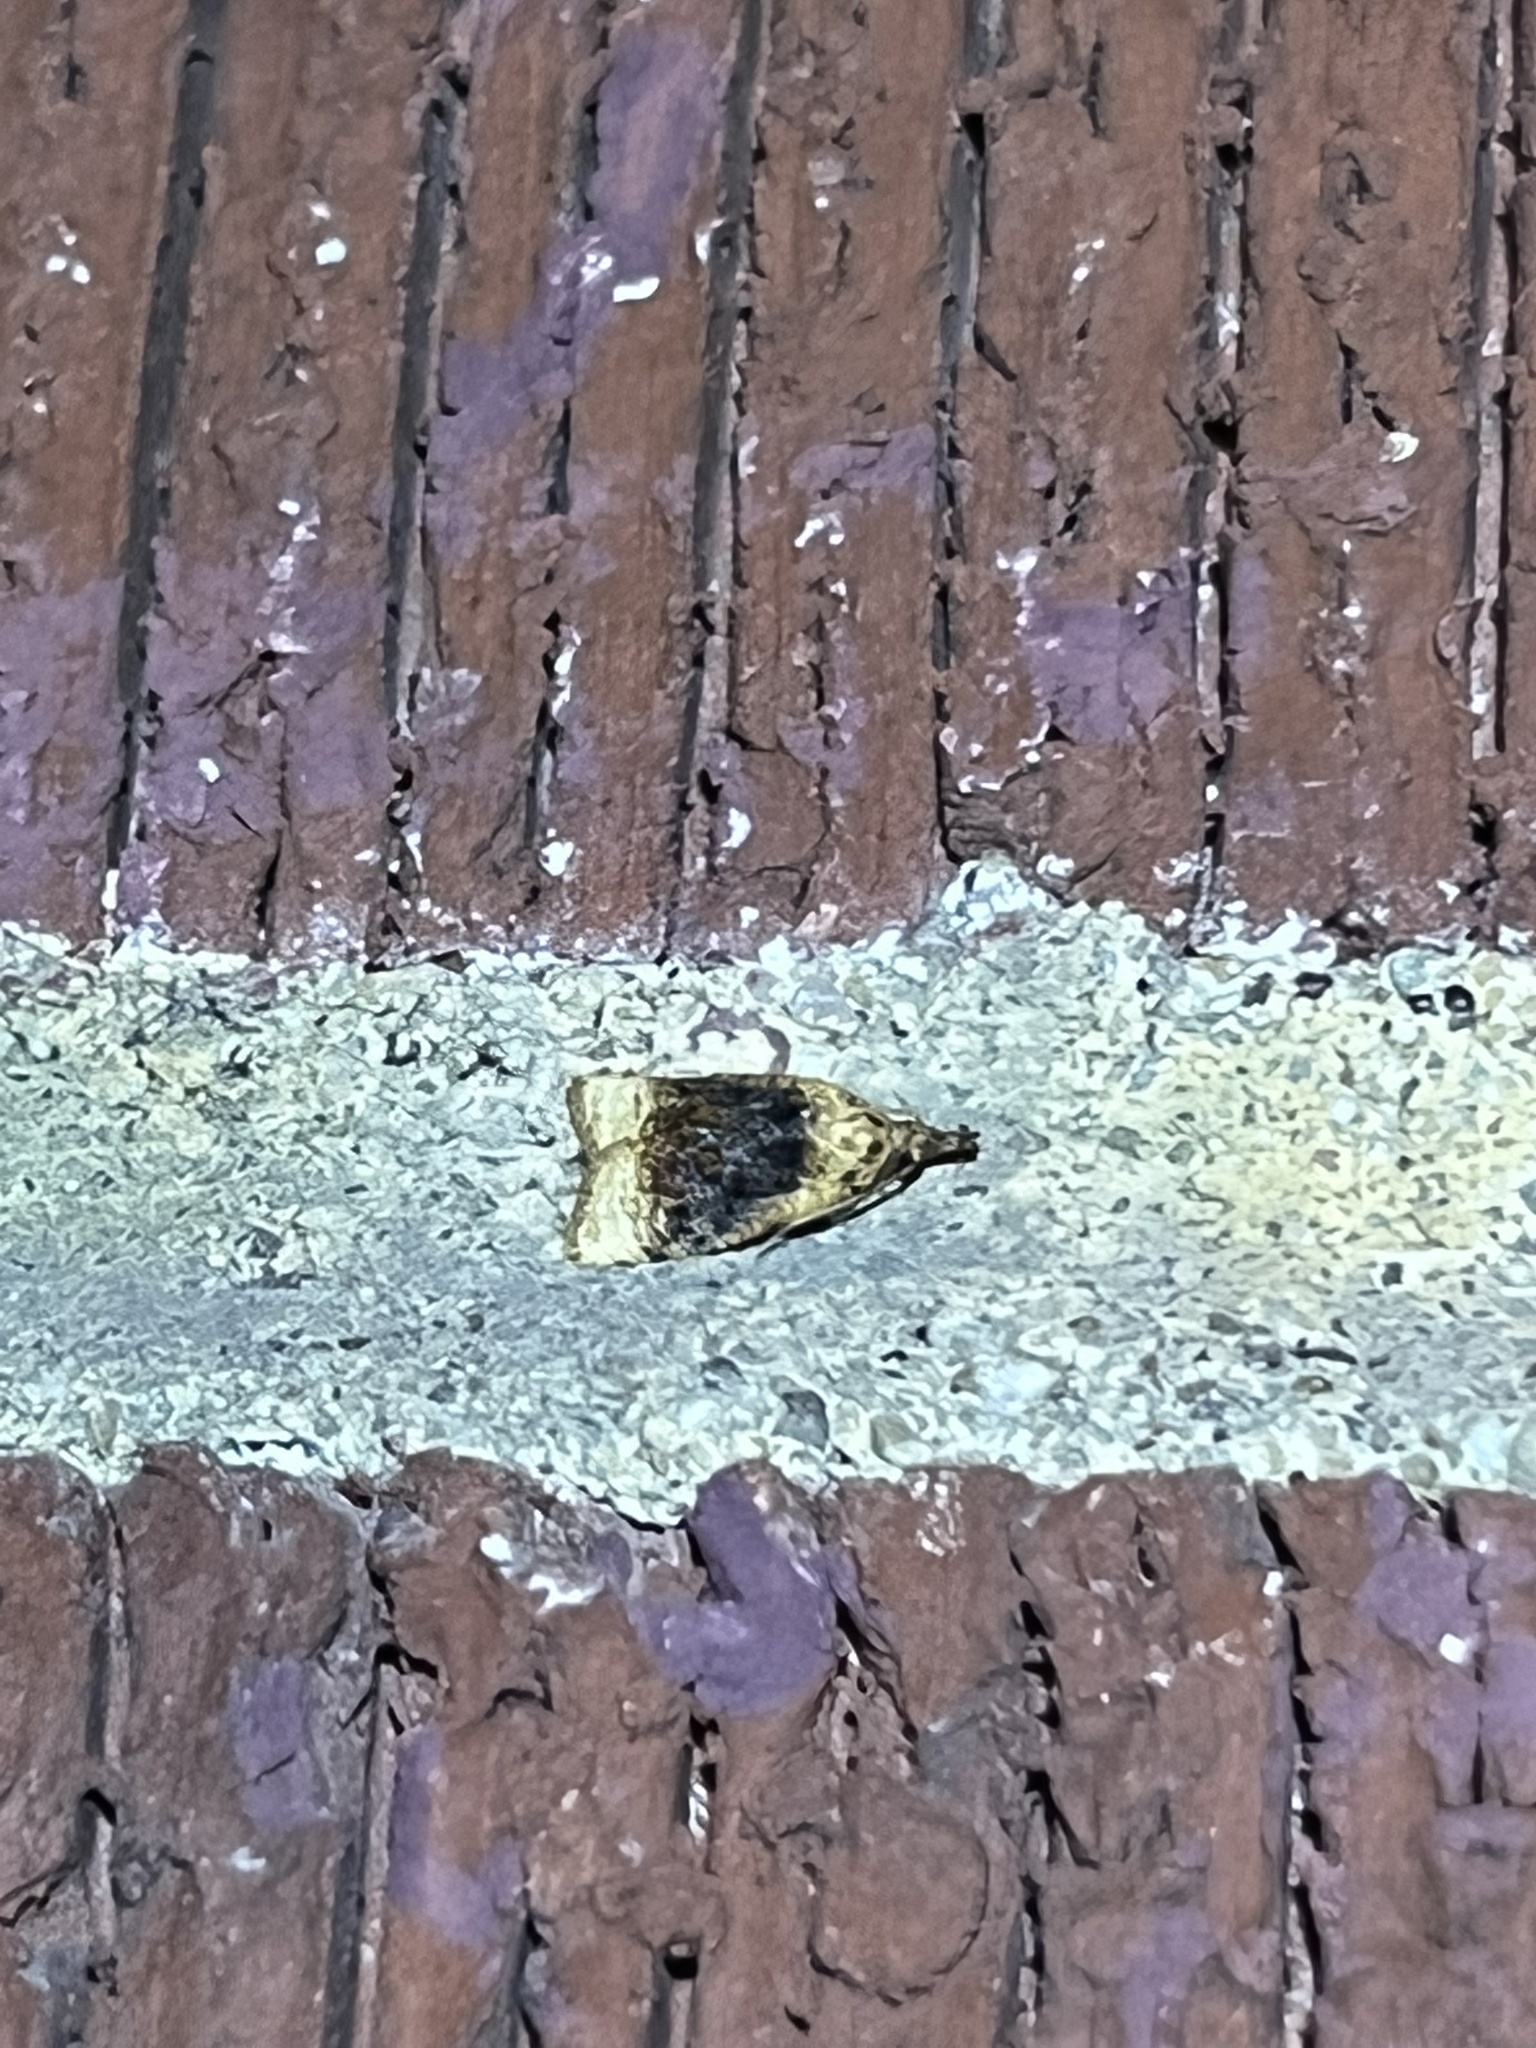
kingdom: Animalia
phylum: Arthropoda
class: Insecta
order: Lepidoptera
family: Tortricidae
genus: Platynota
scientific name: Platynota flavedana
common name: Black-shaded platynota moth
